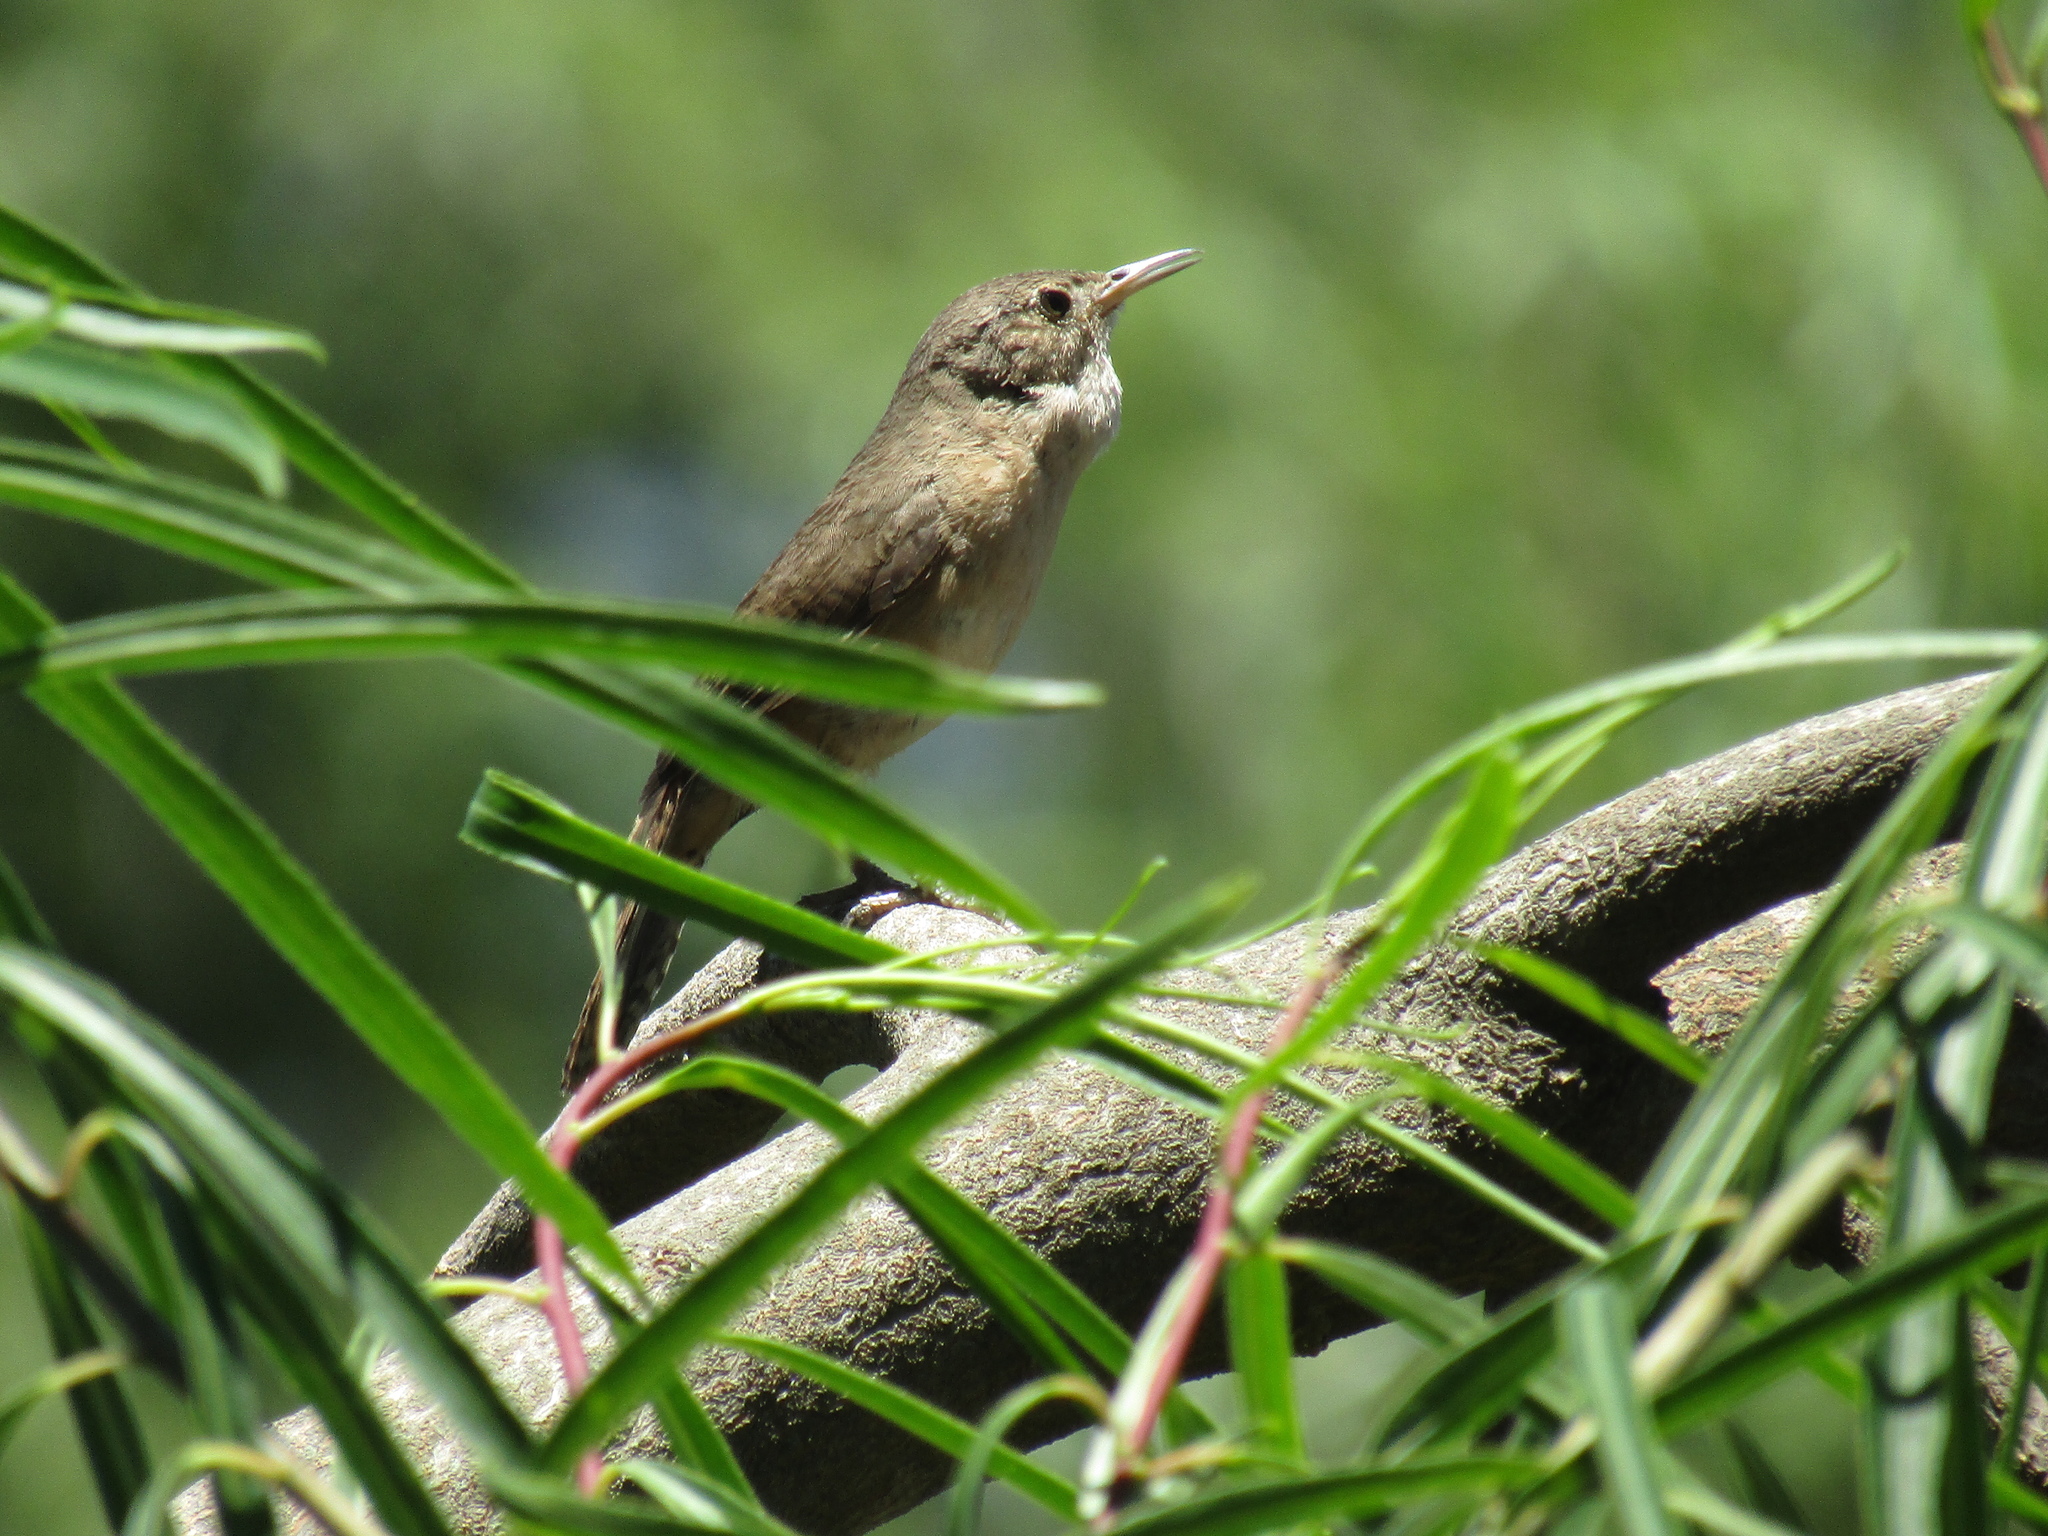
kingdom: Animalia
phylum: Chordata
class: Aves
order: Passeriformes
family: Troglodytidae
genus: Troglodytes
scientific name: Troglodytes aedon
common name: House wren
